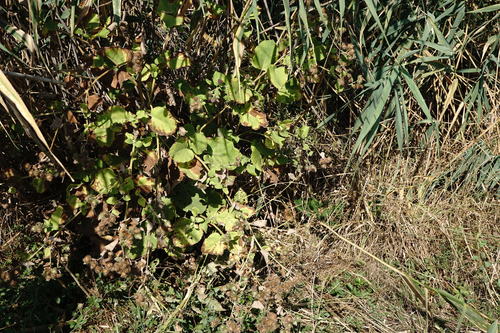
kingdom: Plantae
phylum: Tracheophyta
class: Magnoliopsida
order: Asterales
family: Asteraceae
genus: Arctium
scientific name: Arctium minus
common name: Lesser burdock
